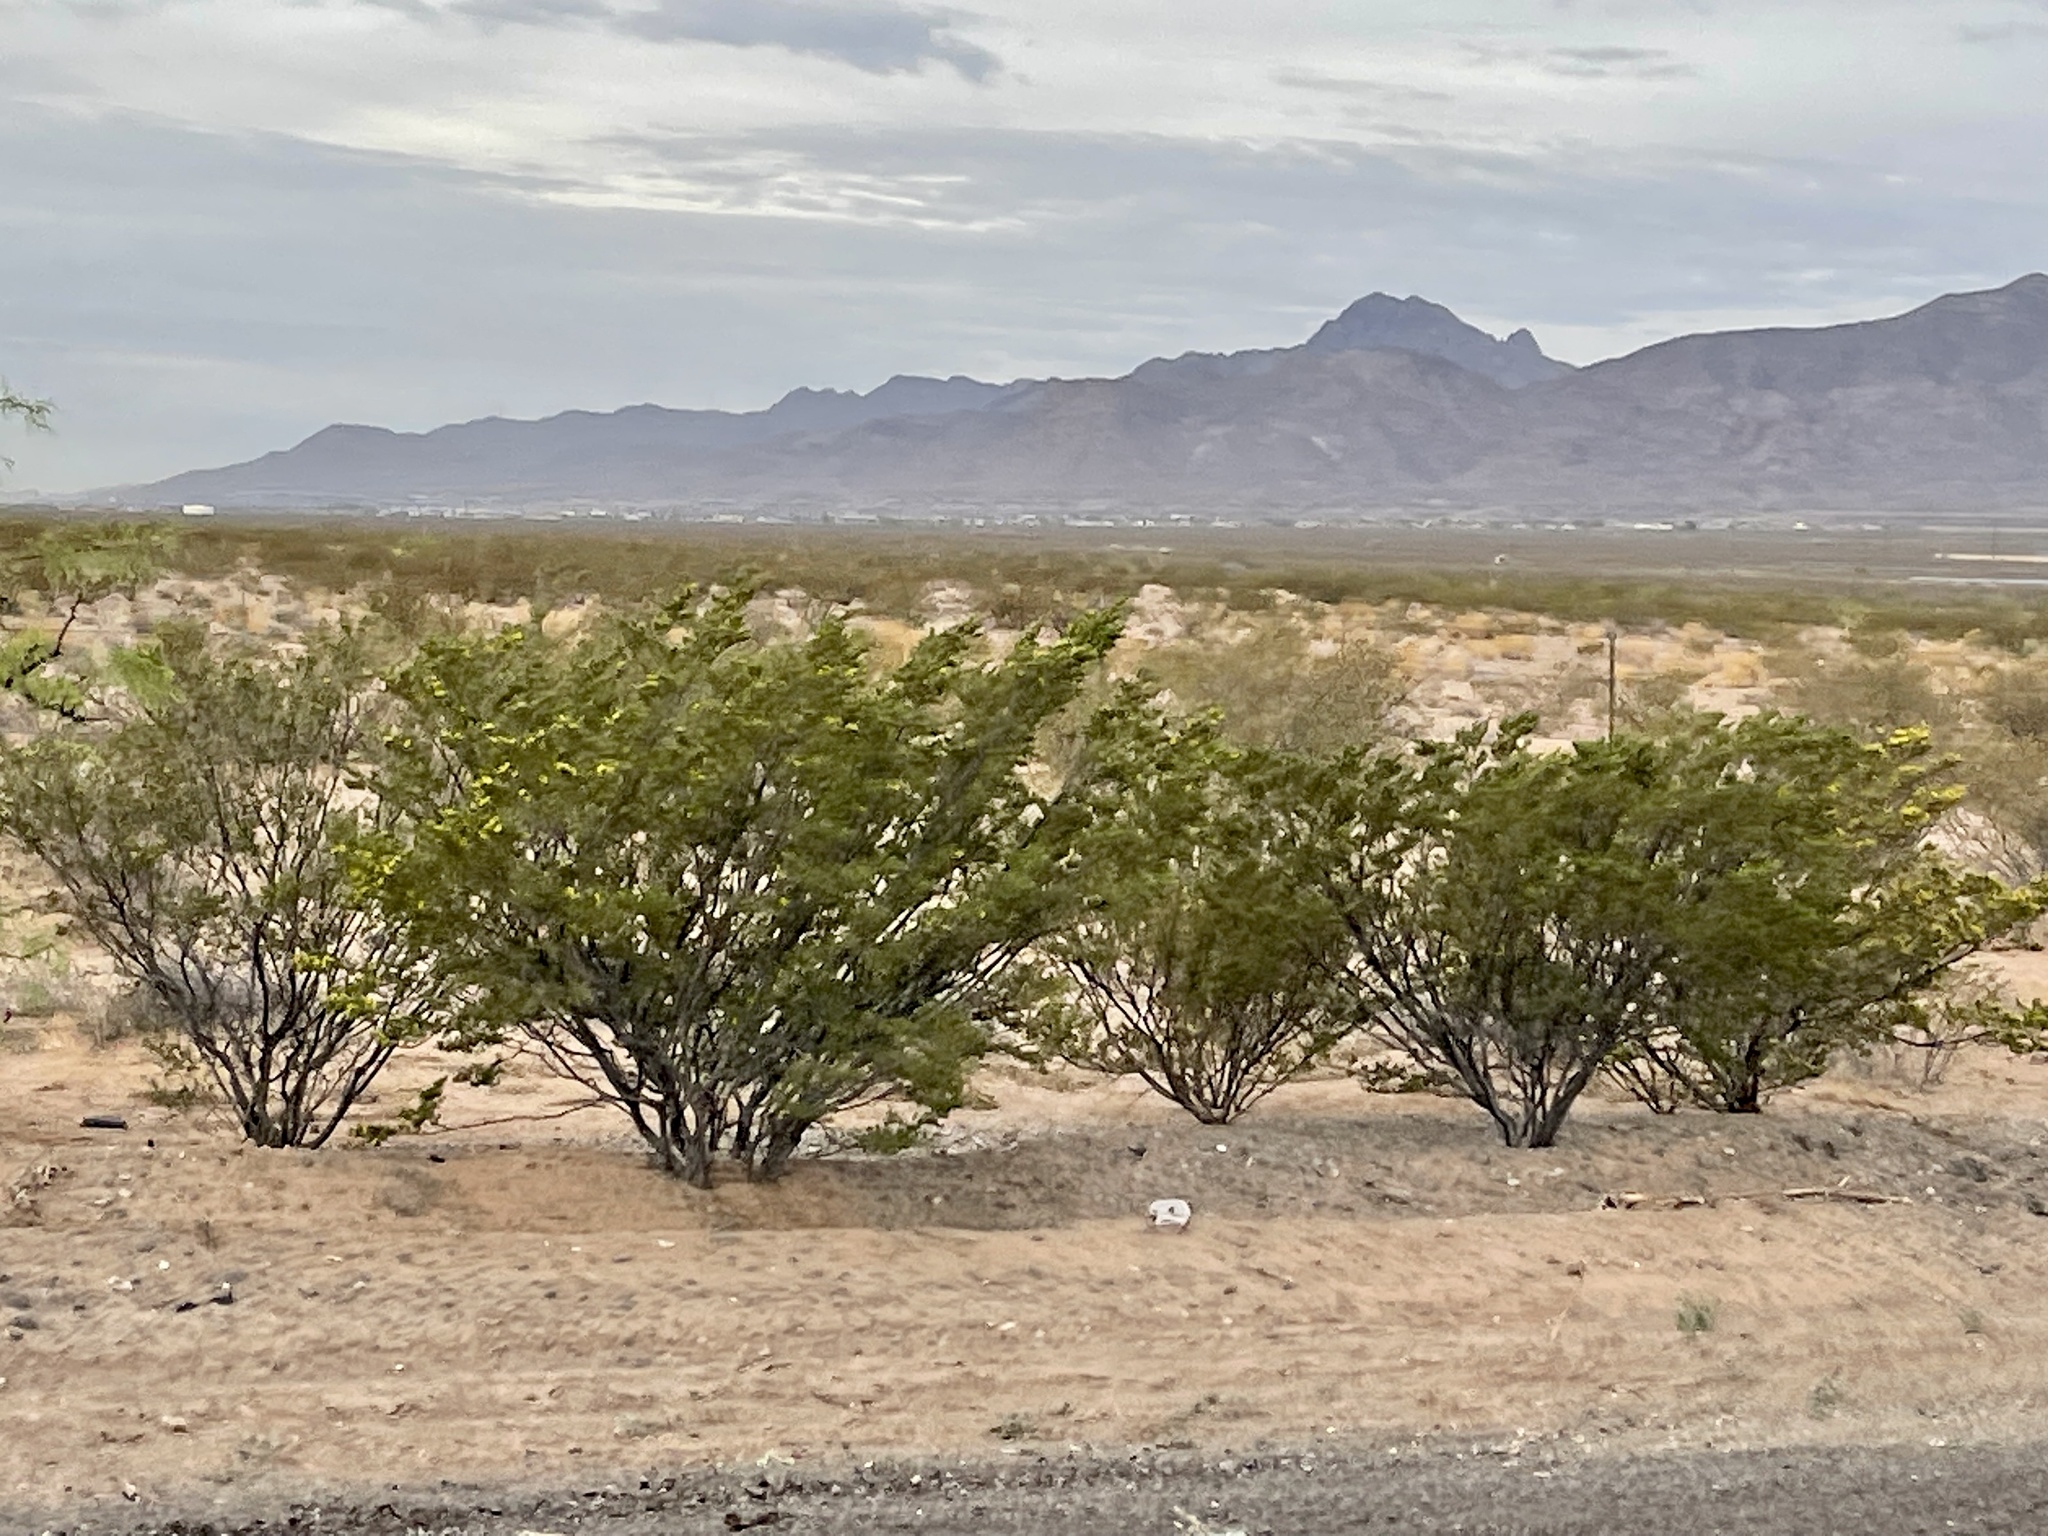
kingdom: Plantae
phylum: Tracheophyta
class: Magnoliopsida
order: Zygophyllales
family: Zygophyllaceae
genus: Larrea
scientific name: Larrea tridentata
